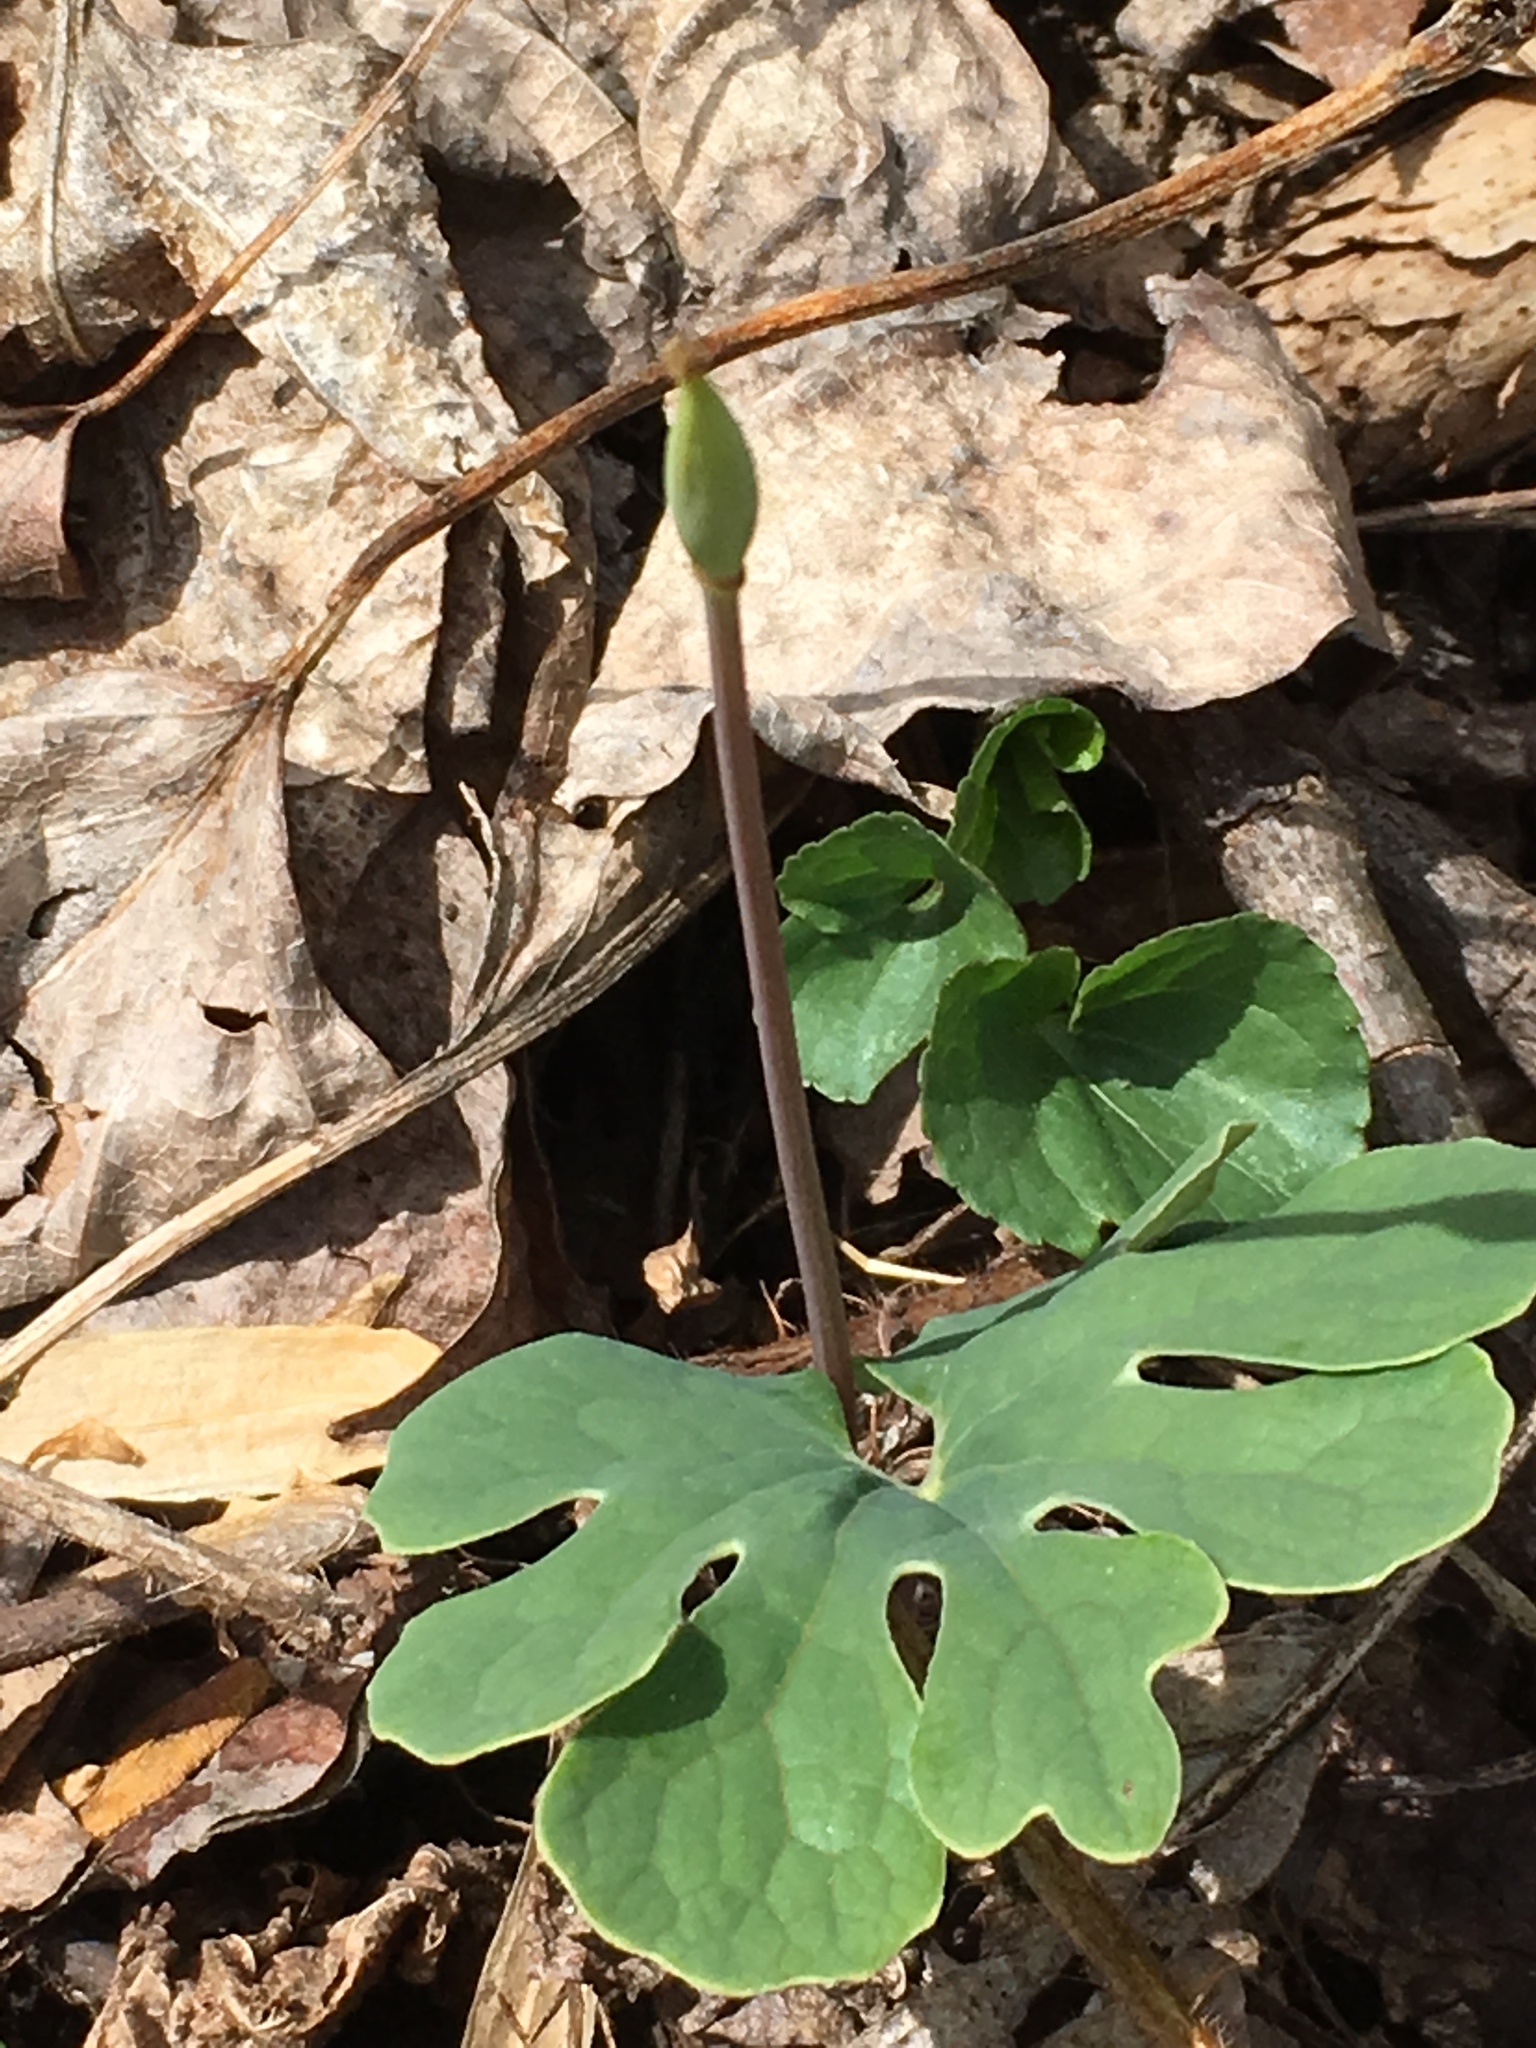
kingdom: Plantae
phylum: Tracheophyta
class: Magnoliopsida
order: Ranunculales
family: Papaveraceae
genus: Sanguinaria
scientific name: Sanguinaria canadensis
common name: Bloodroot
